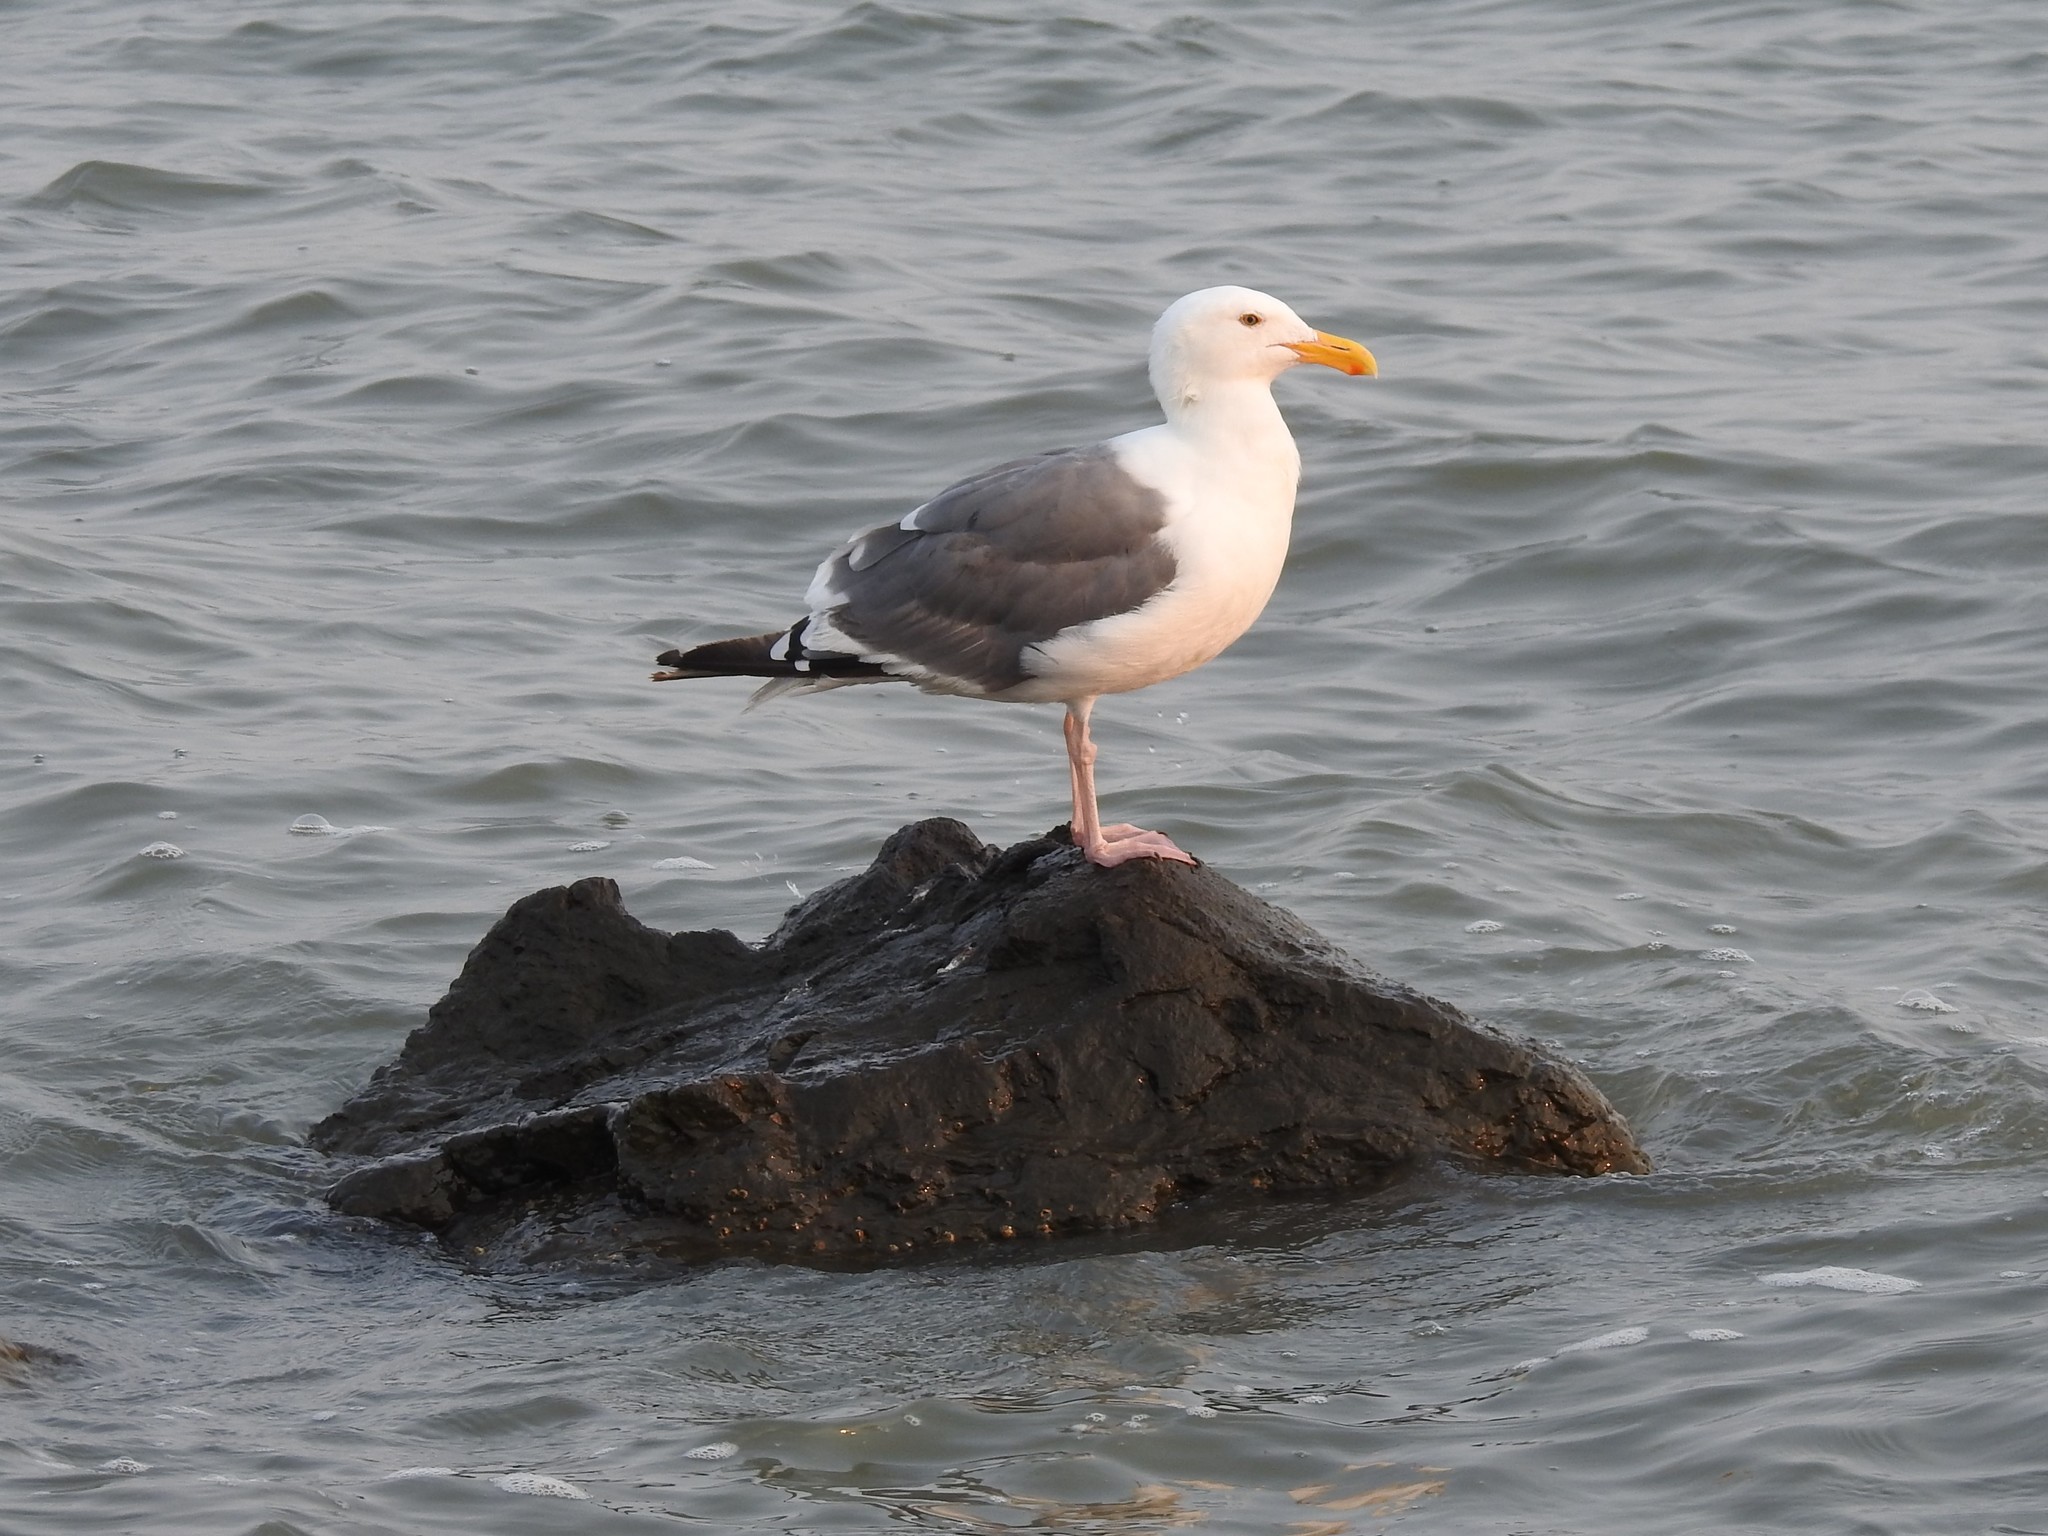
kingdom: Animalia
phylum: Chordata
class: Aves
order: Charadriiformes
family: Laridae
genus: Larus
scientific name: Larus occidentalis
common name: Western gull
